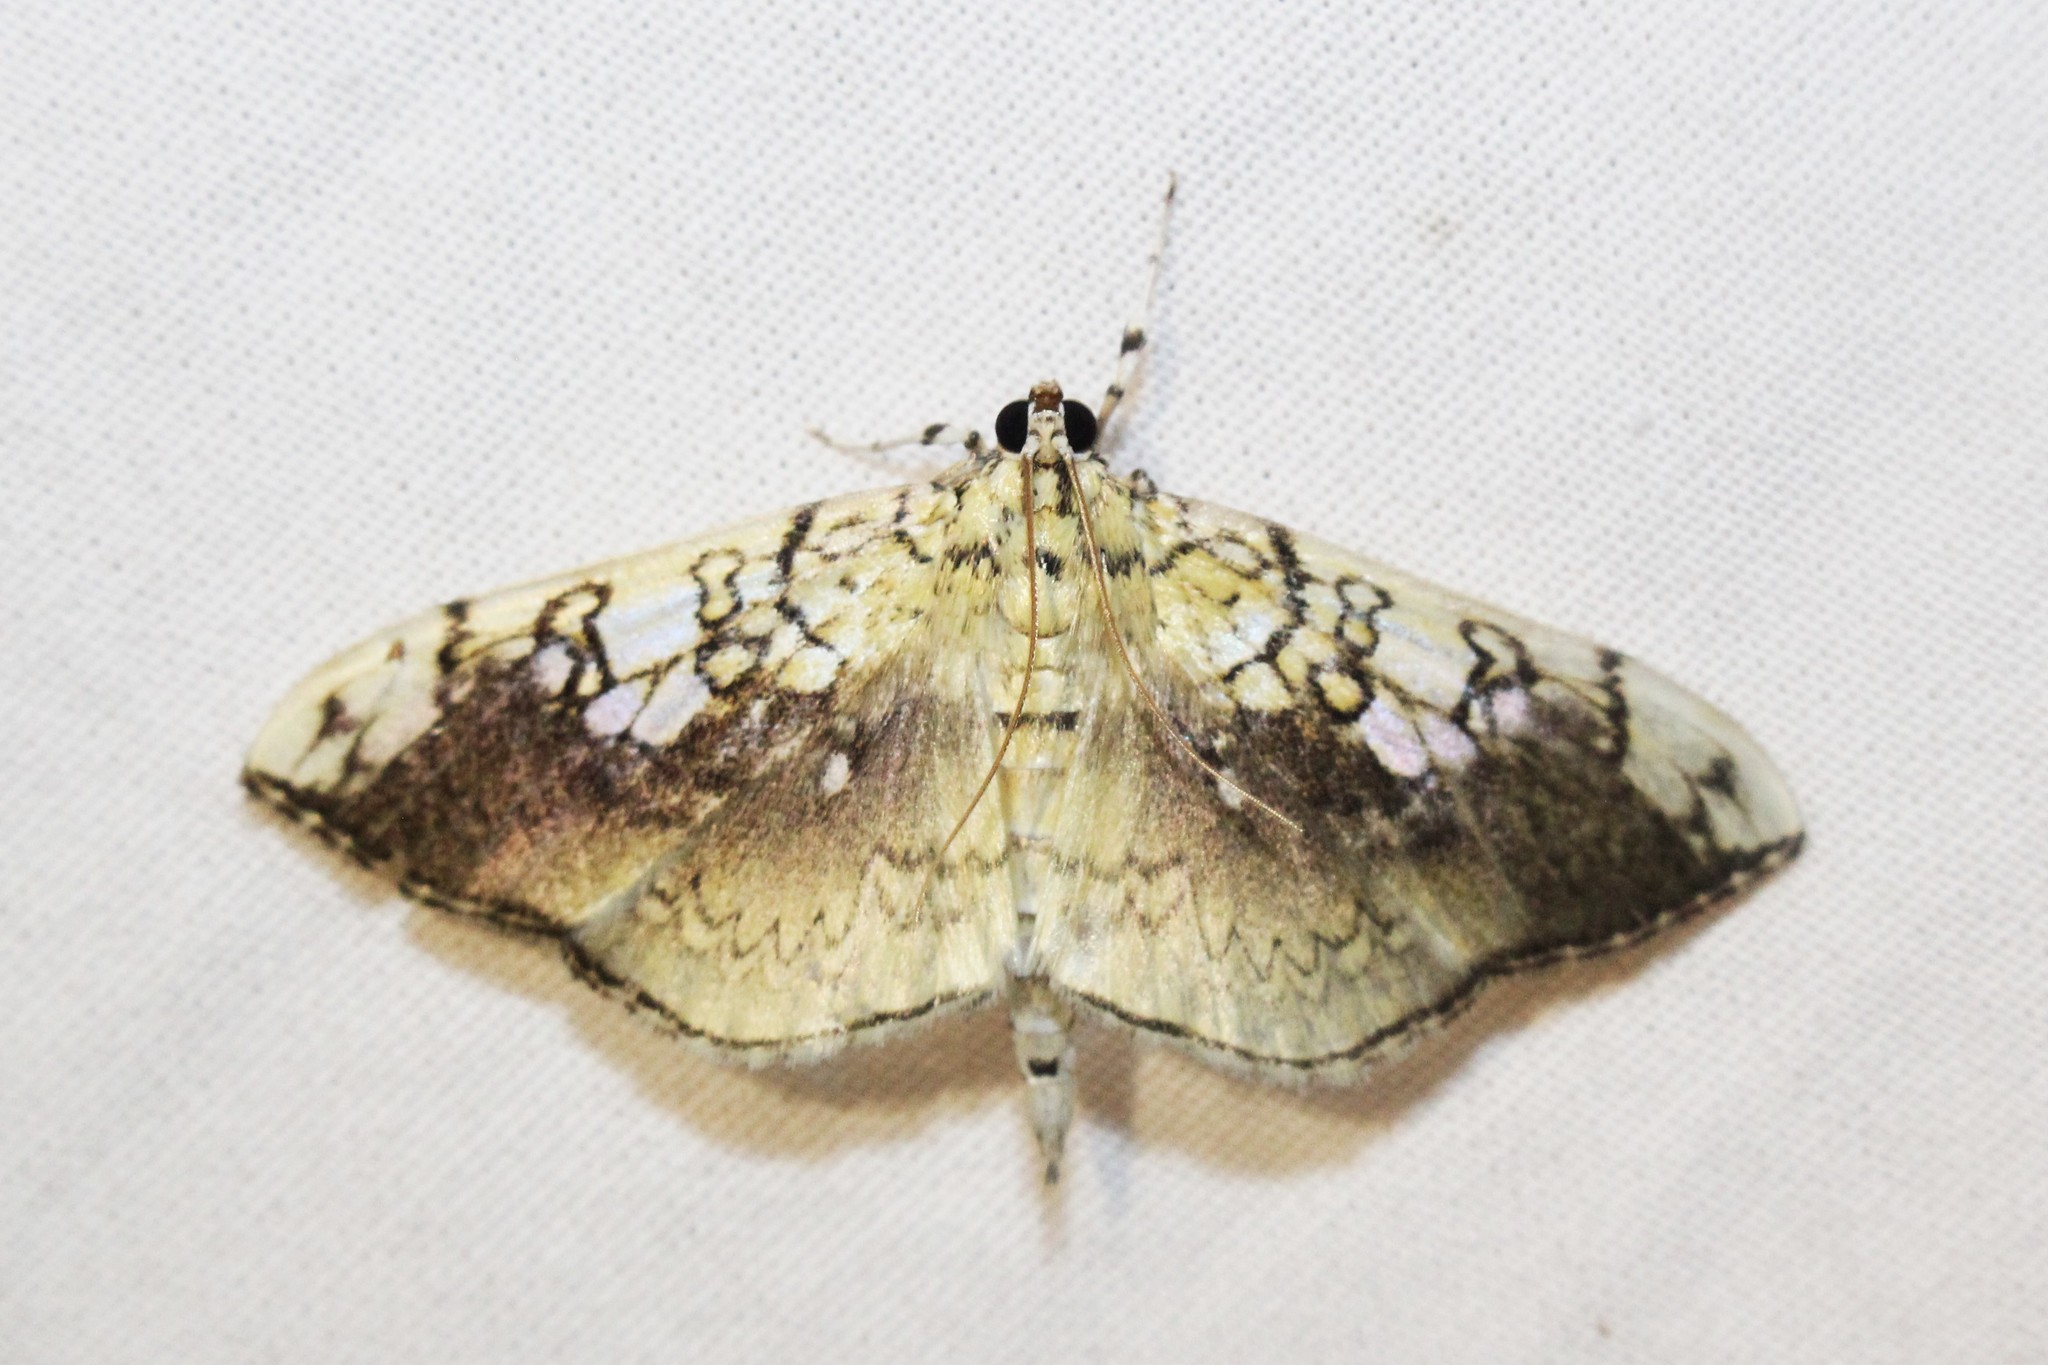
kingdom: Animalia
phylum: Arthropoda
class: Insecta
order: Lepidoptera
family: Crambidae
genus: Pantographa
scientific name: Pantographa limata
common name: Basswood leafroller moth
